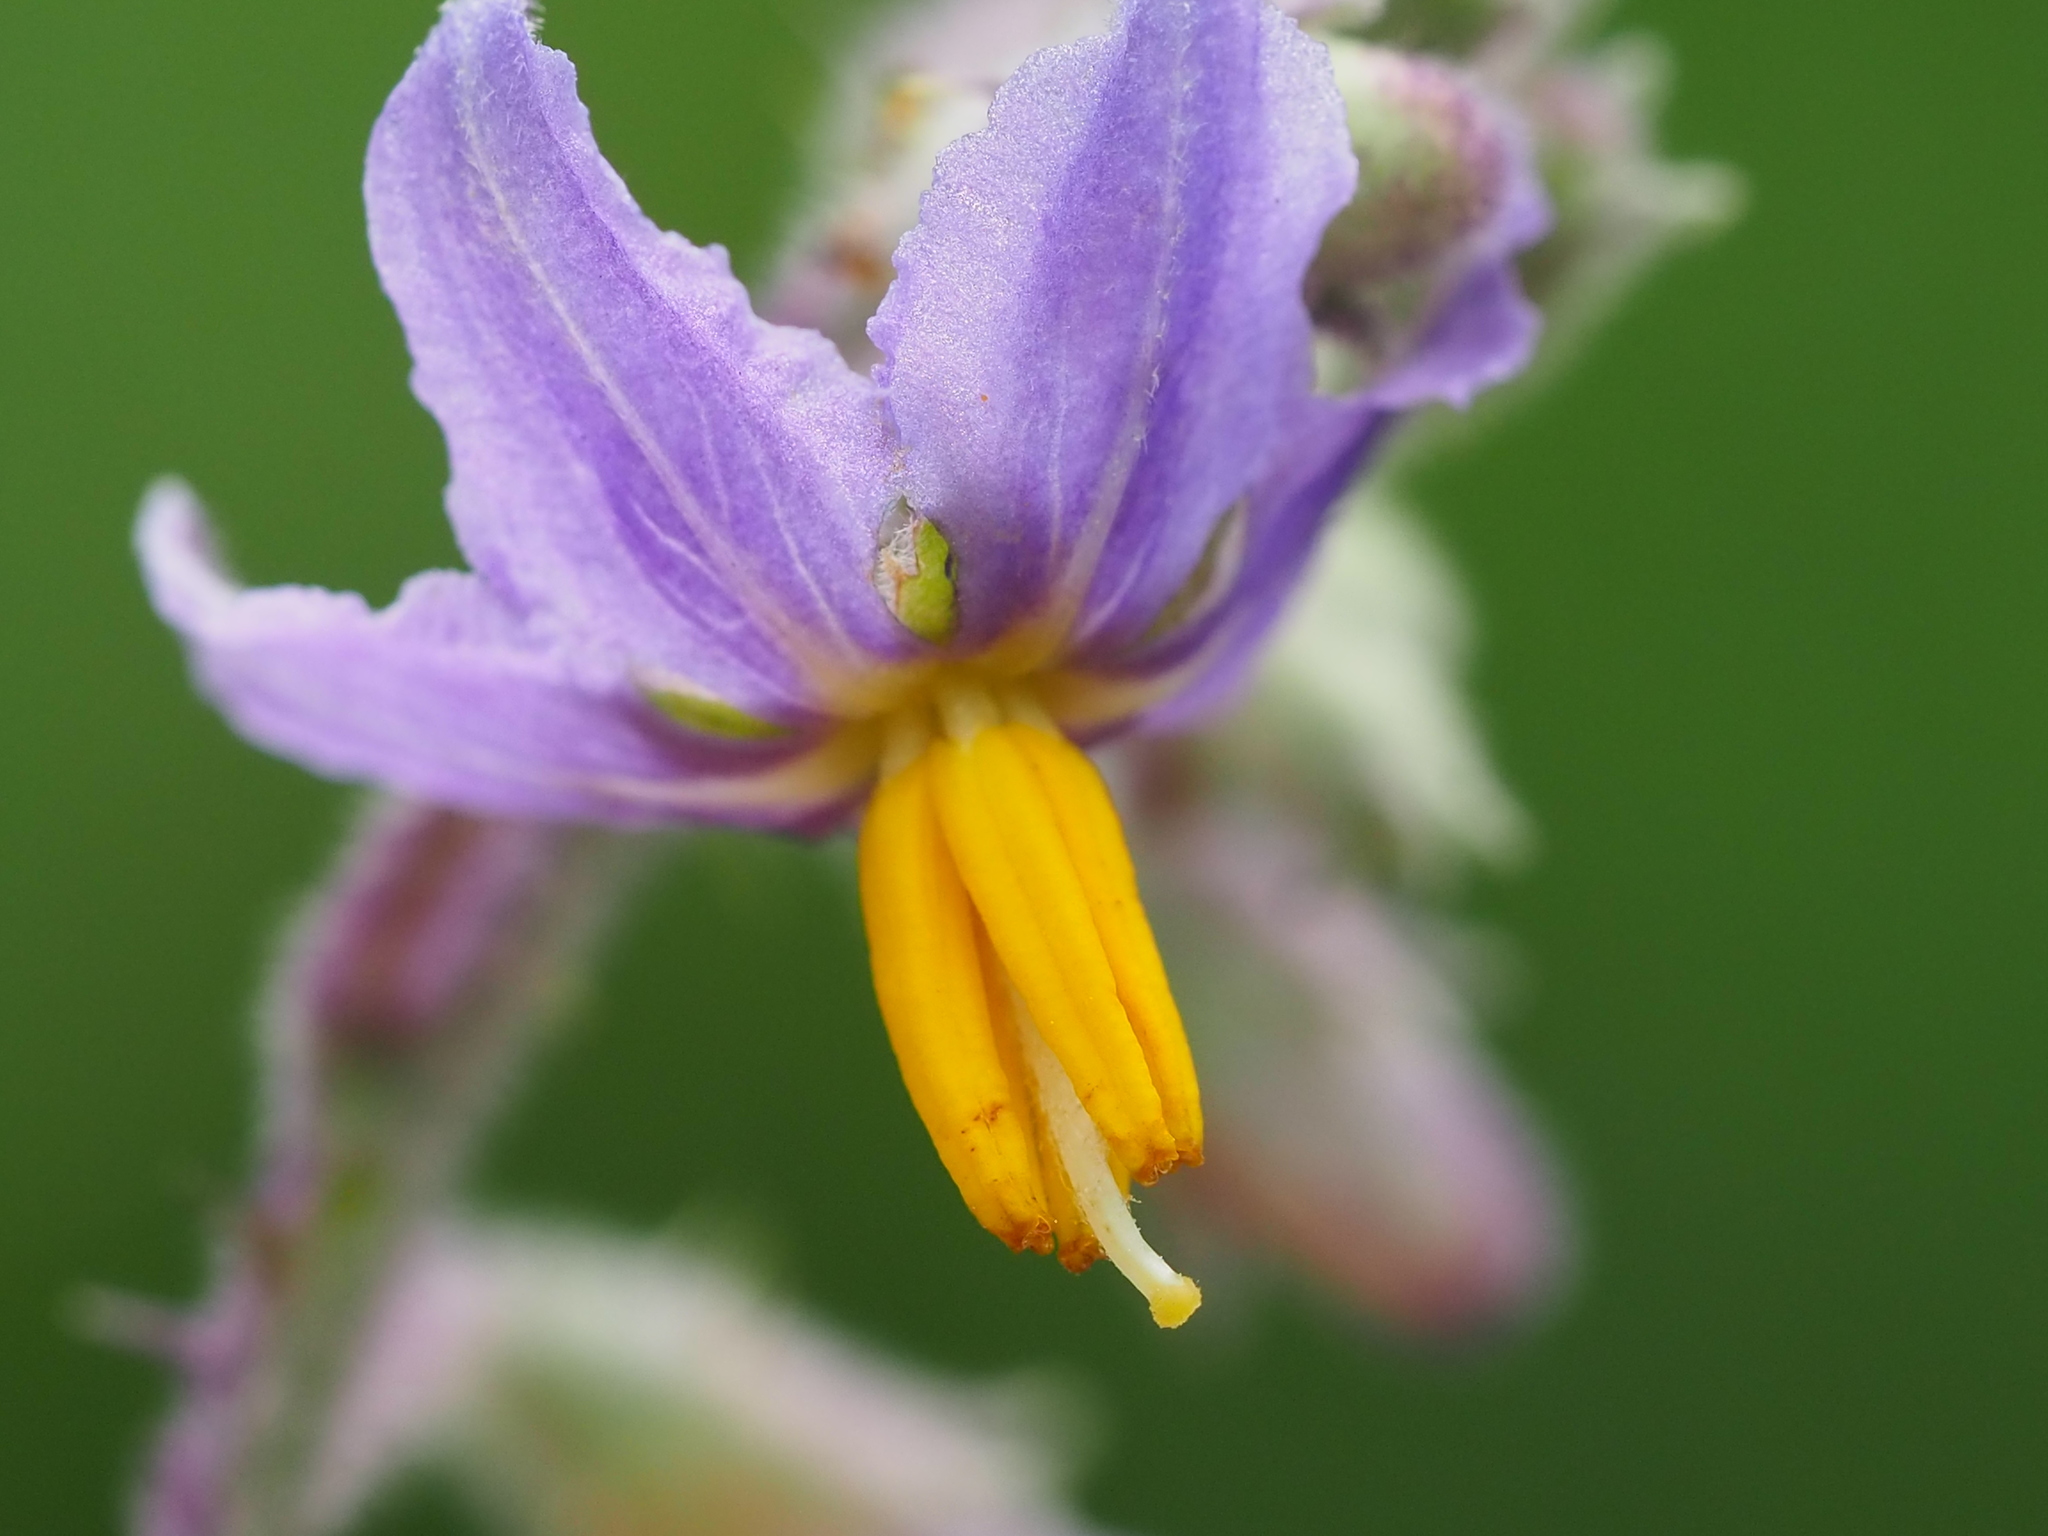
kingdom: Plantae
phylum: Tracheophyta
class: Magnoliopsida
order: Solanales
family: Solanaceae
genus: Solanum
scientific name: Solanum violaceum
